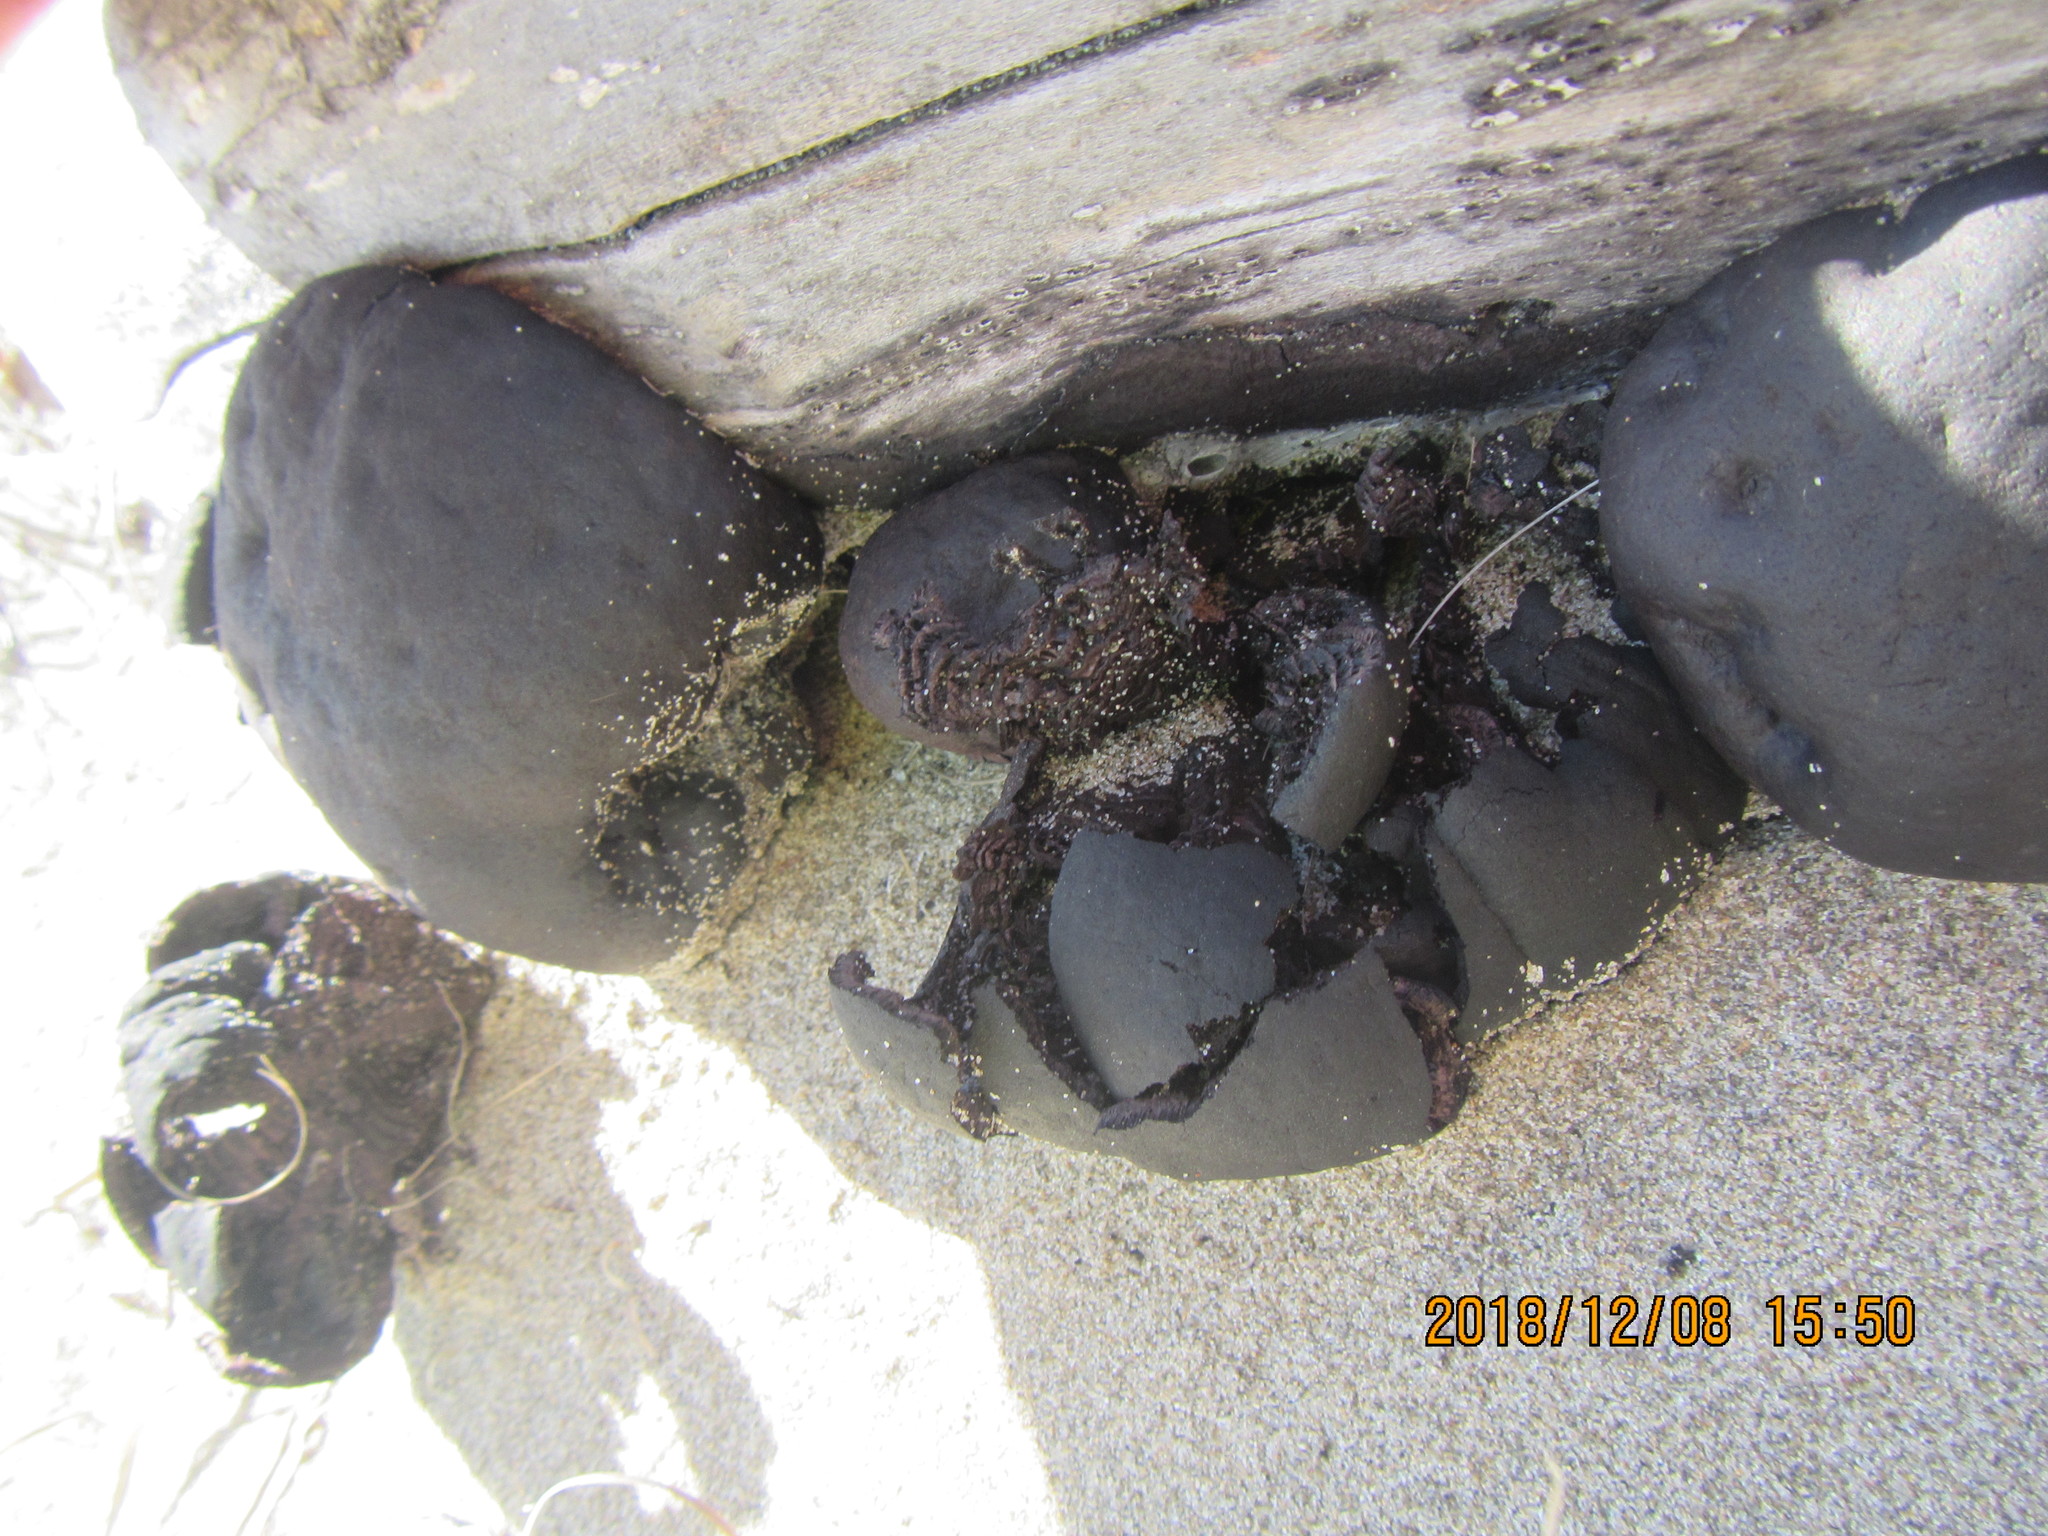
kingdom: Fungi
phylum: Ascomycota
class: Sordariomycetes
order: Xylariales
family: Hypoxylaceae
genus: Daldinia
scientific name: Daldinia
